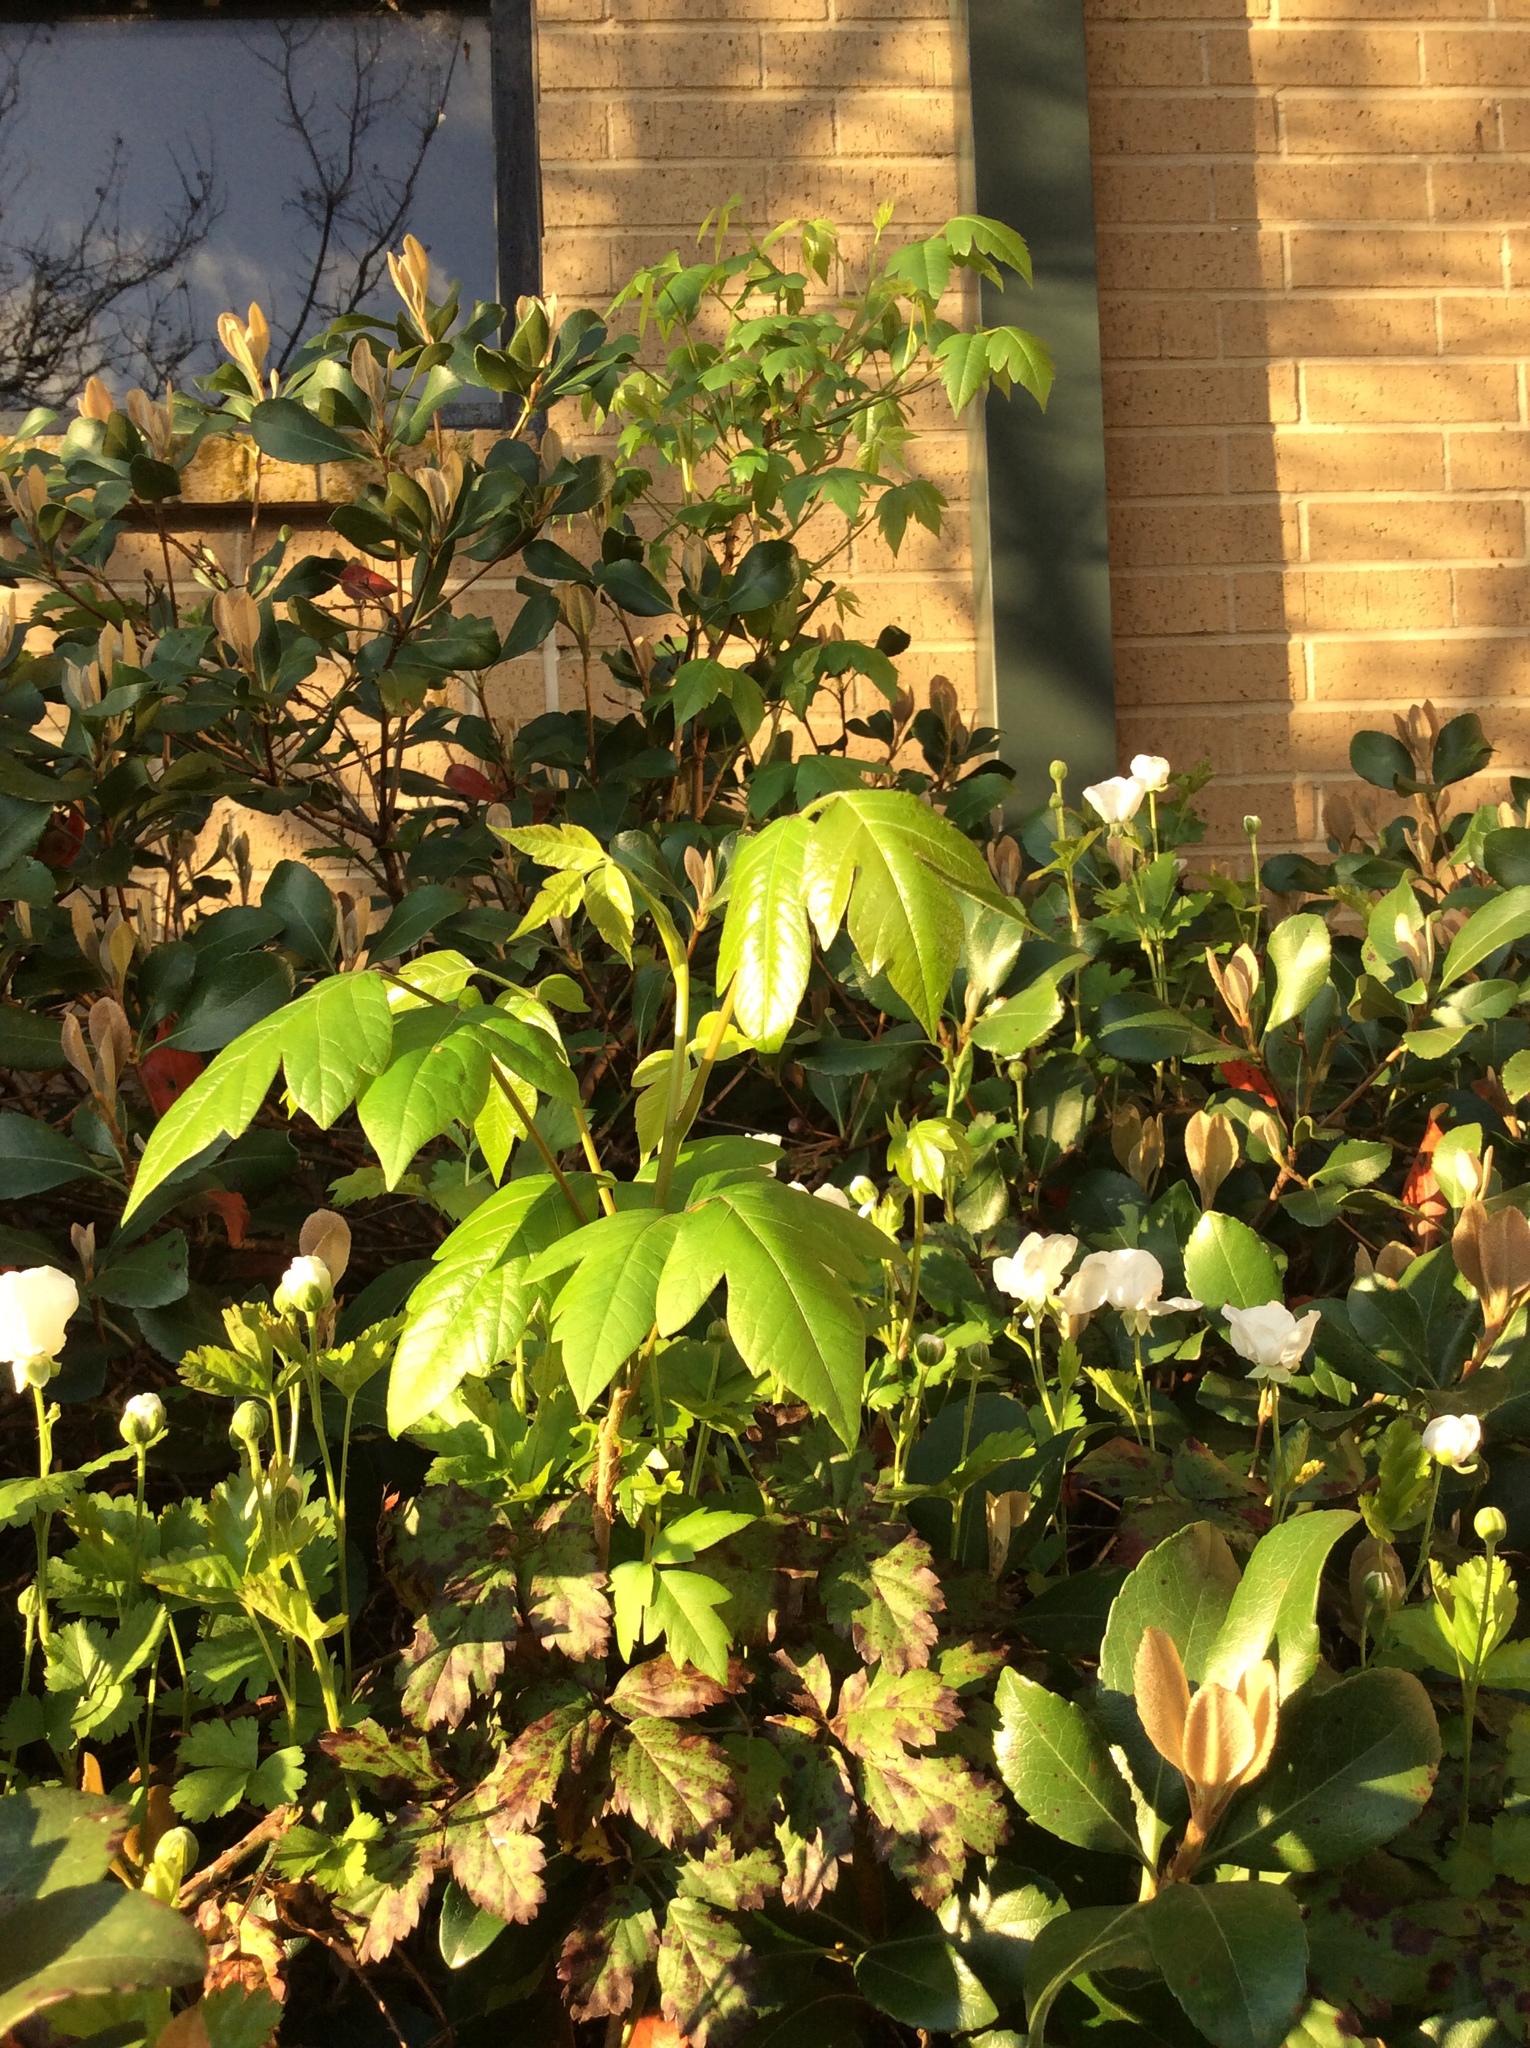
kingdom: Plantae
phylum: Tracheophyta
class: Magnoliopsida
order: Sapindales
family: Anacardiaceae
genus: Toxicodendron
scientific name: Toxicodendron radicans
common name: Poison ivy
